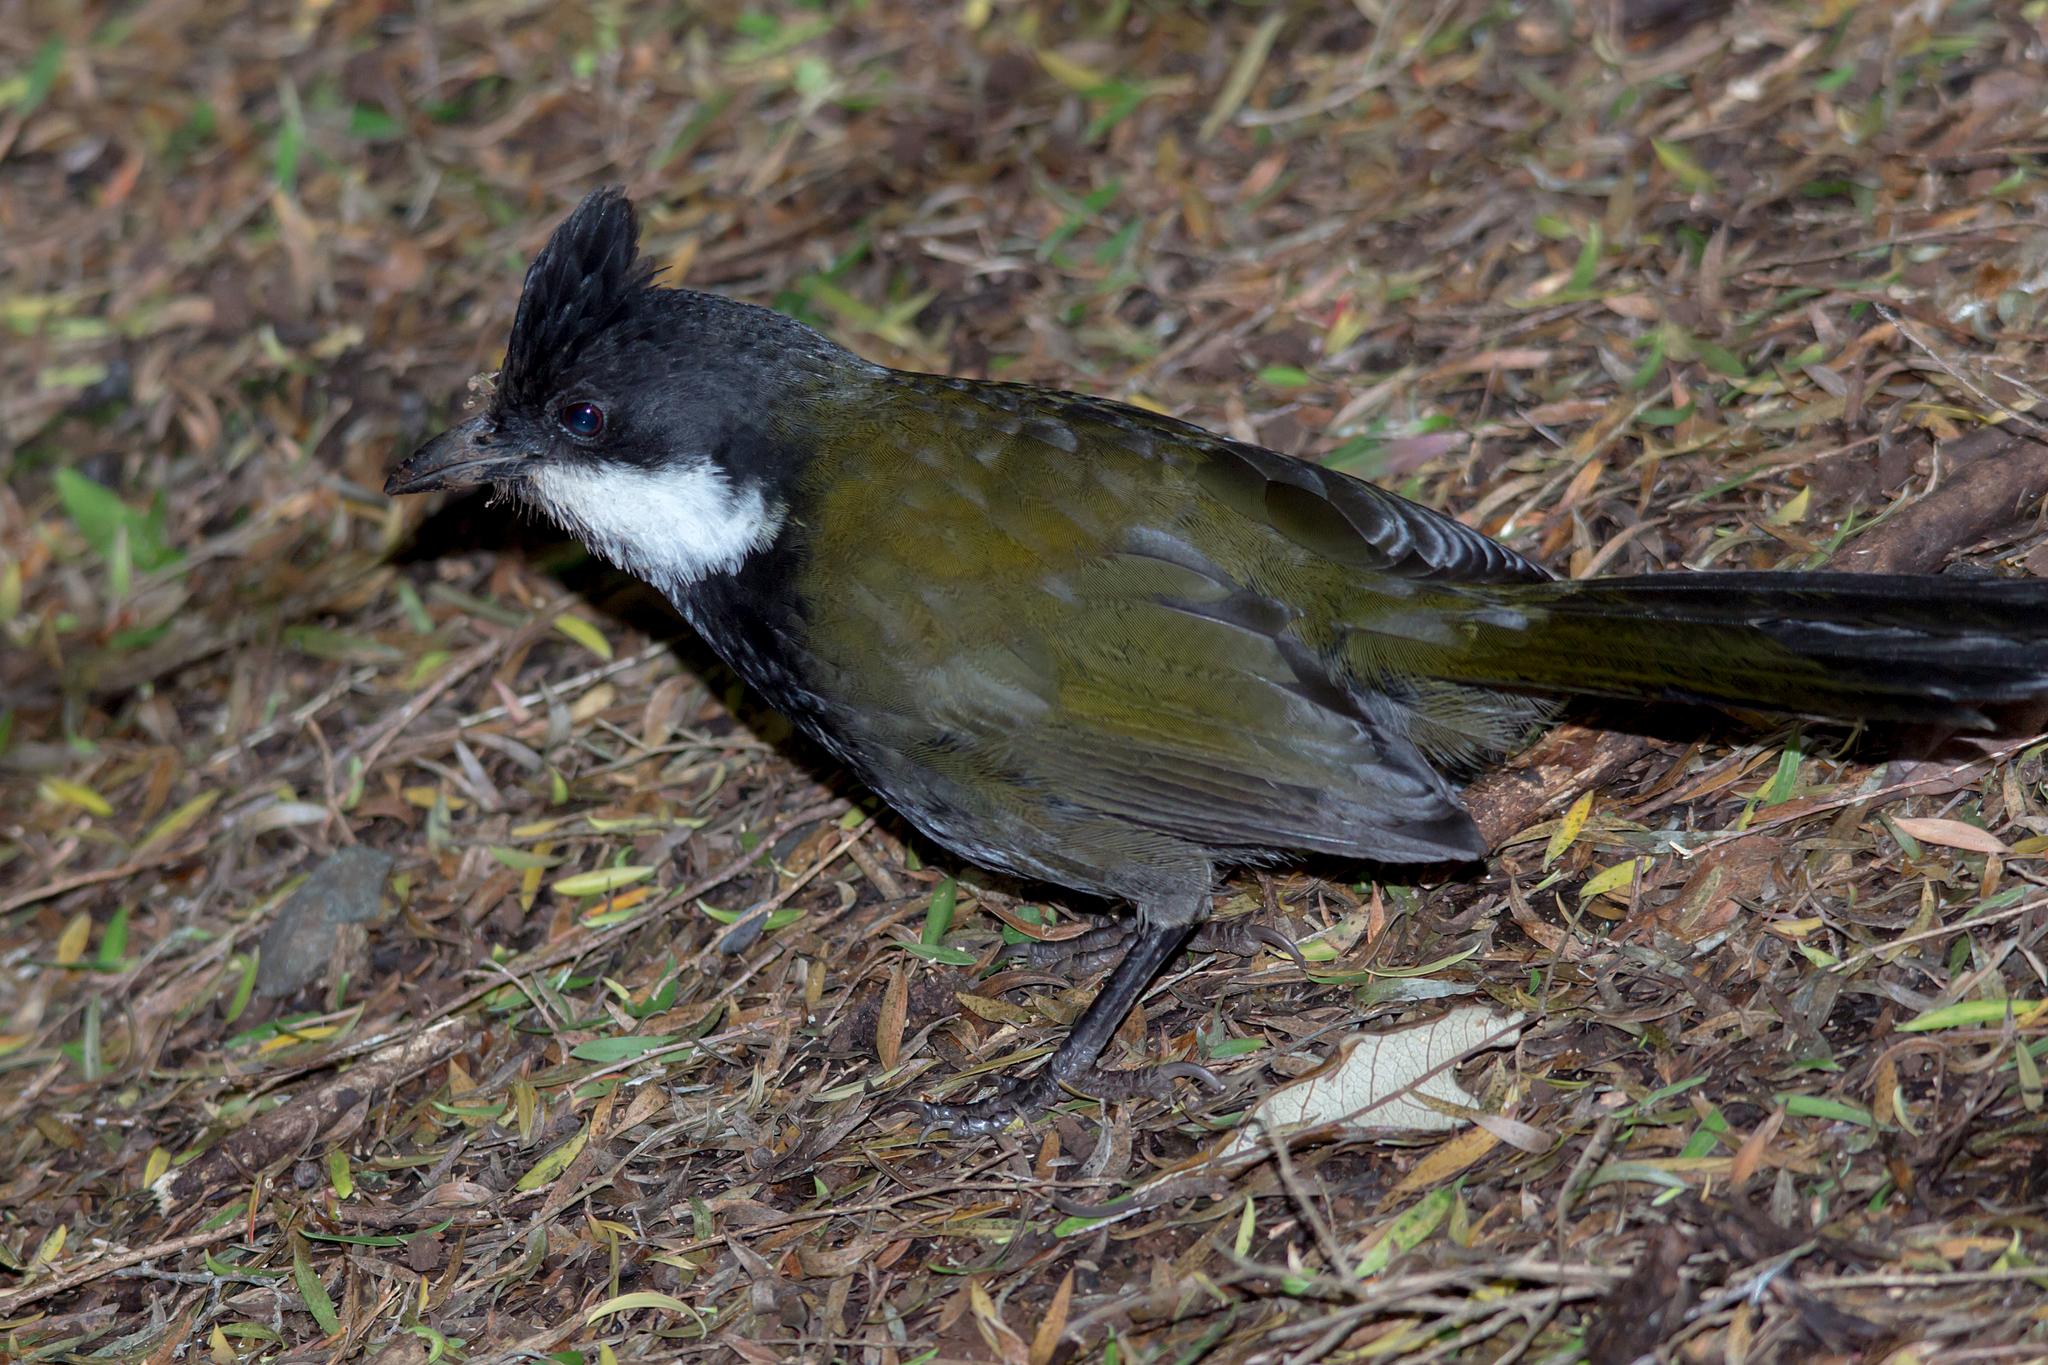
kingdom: Animalia
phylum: Chordata
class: Aves
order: Passeriformes
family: Psophodidae
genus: Psophodes
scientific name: Psophodes olivaceus
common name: Eastern whipbird
